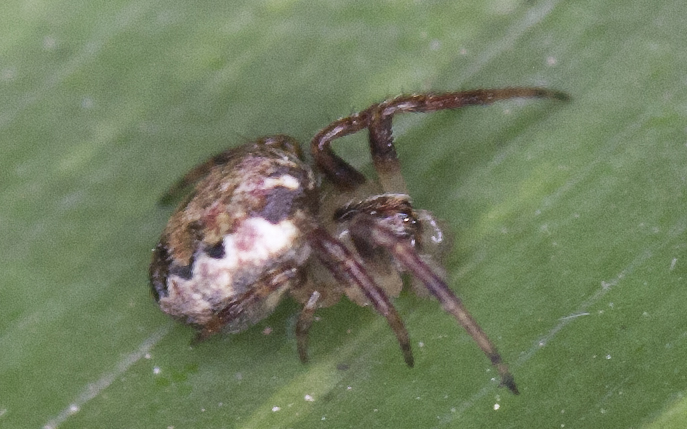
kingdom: Animalia
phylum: Arthropoda
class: Arachnida
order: Araneae
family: Araneidae
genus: Plebs
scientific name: Plebs eburnus
